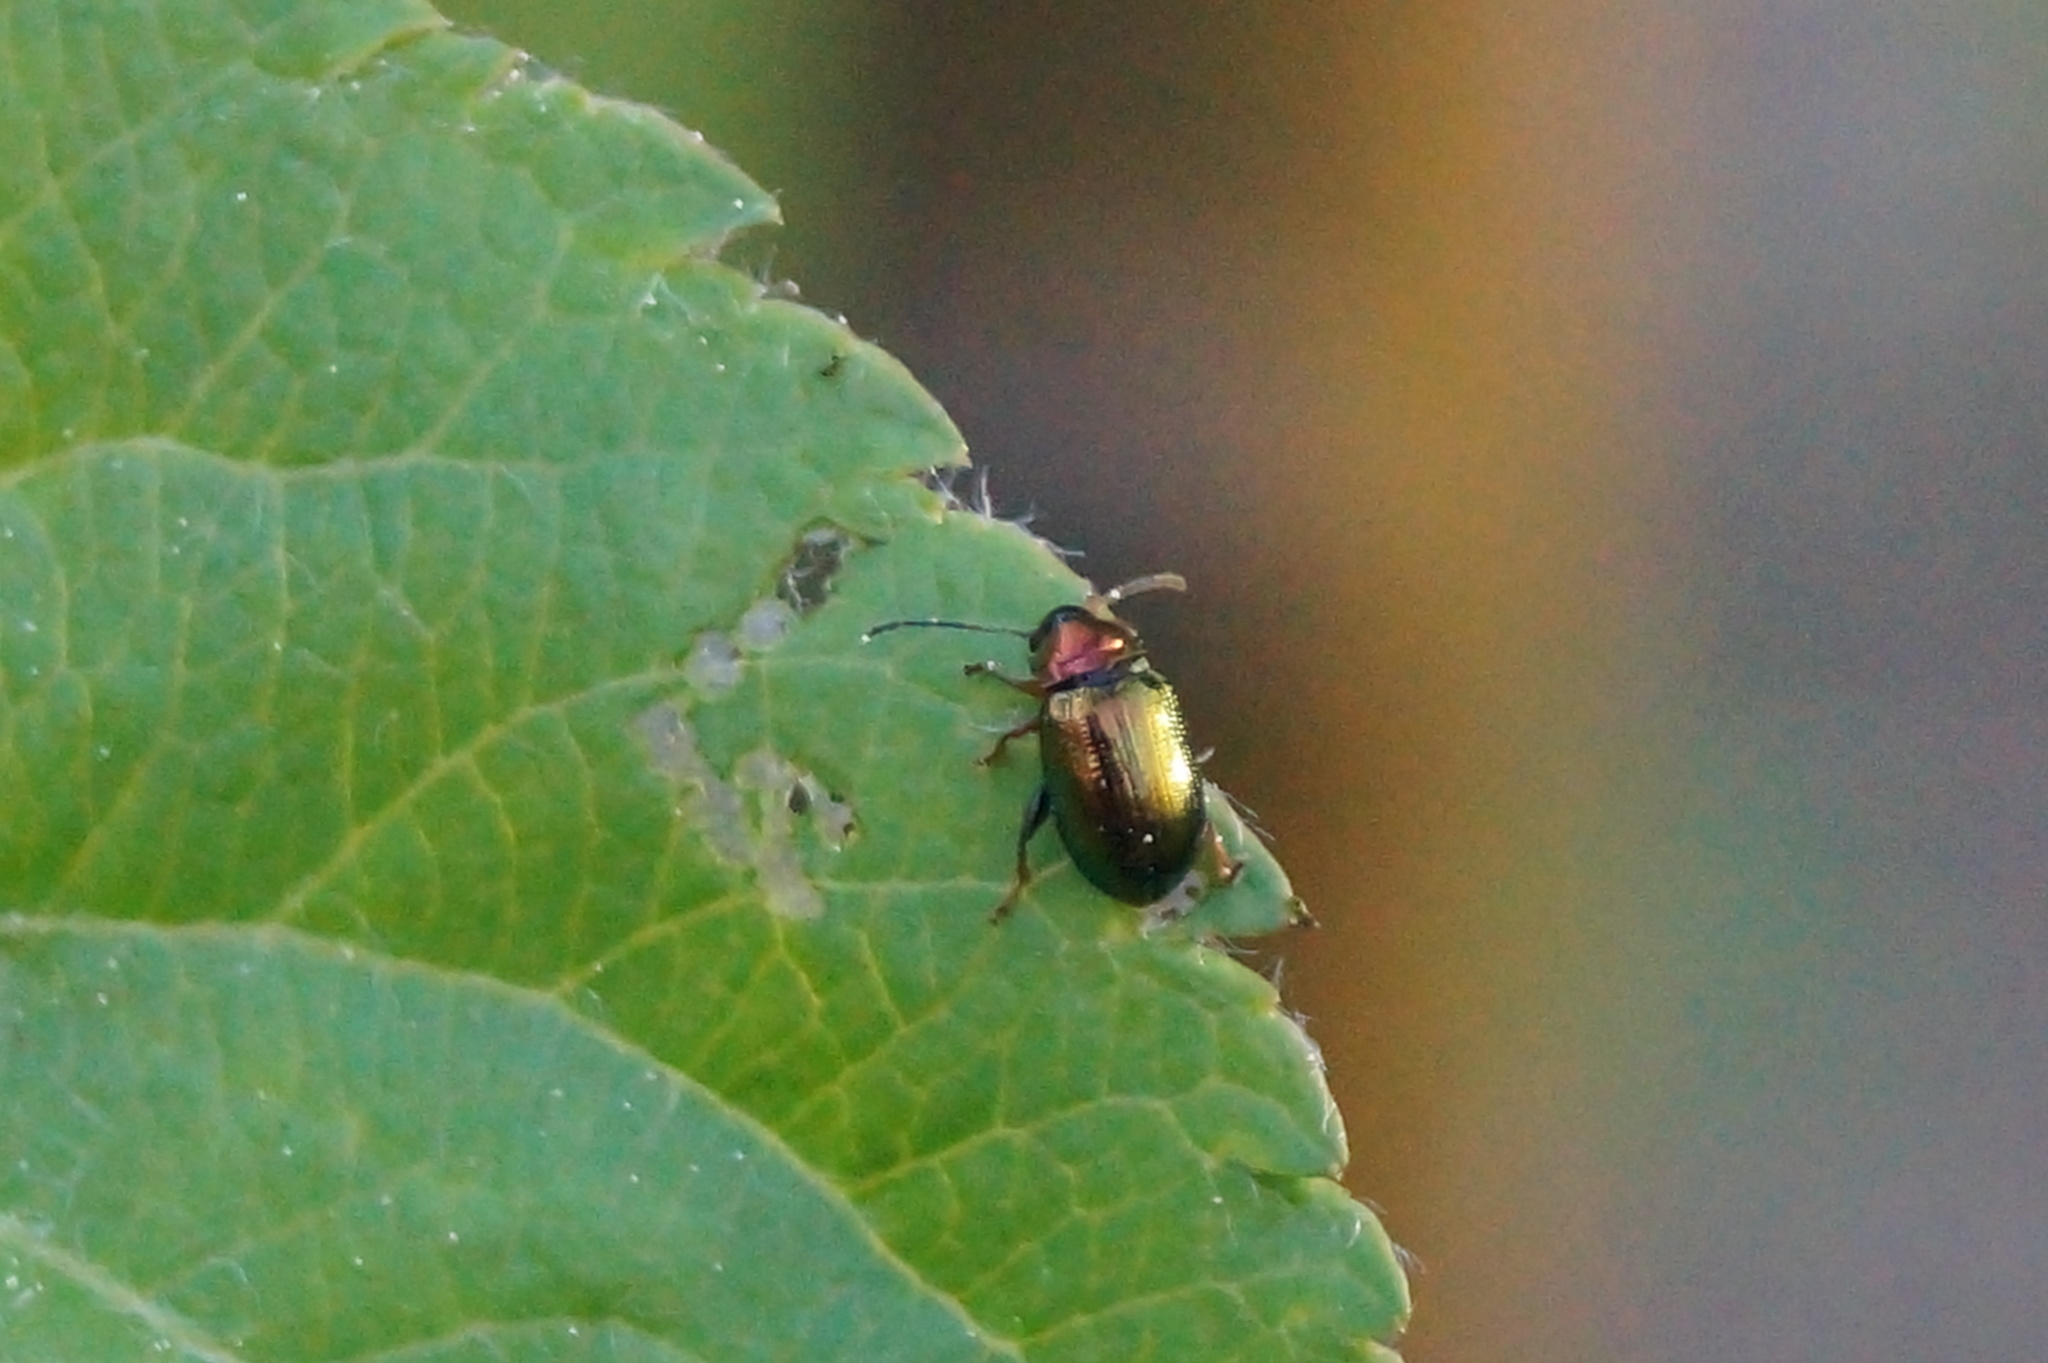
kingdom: Animalia
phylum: Arthropoda
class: Insecta
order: Coleoptera
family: Chrysomelidae
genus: Crepidodera
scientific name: Crepidodera aurata
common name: Willow flea beetle
